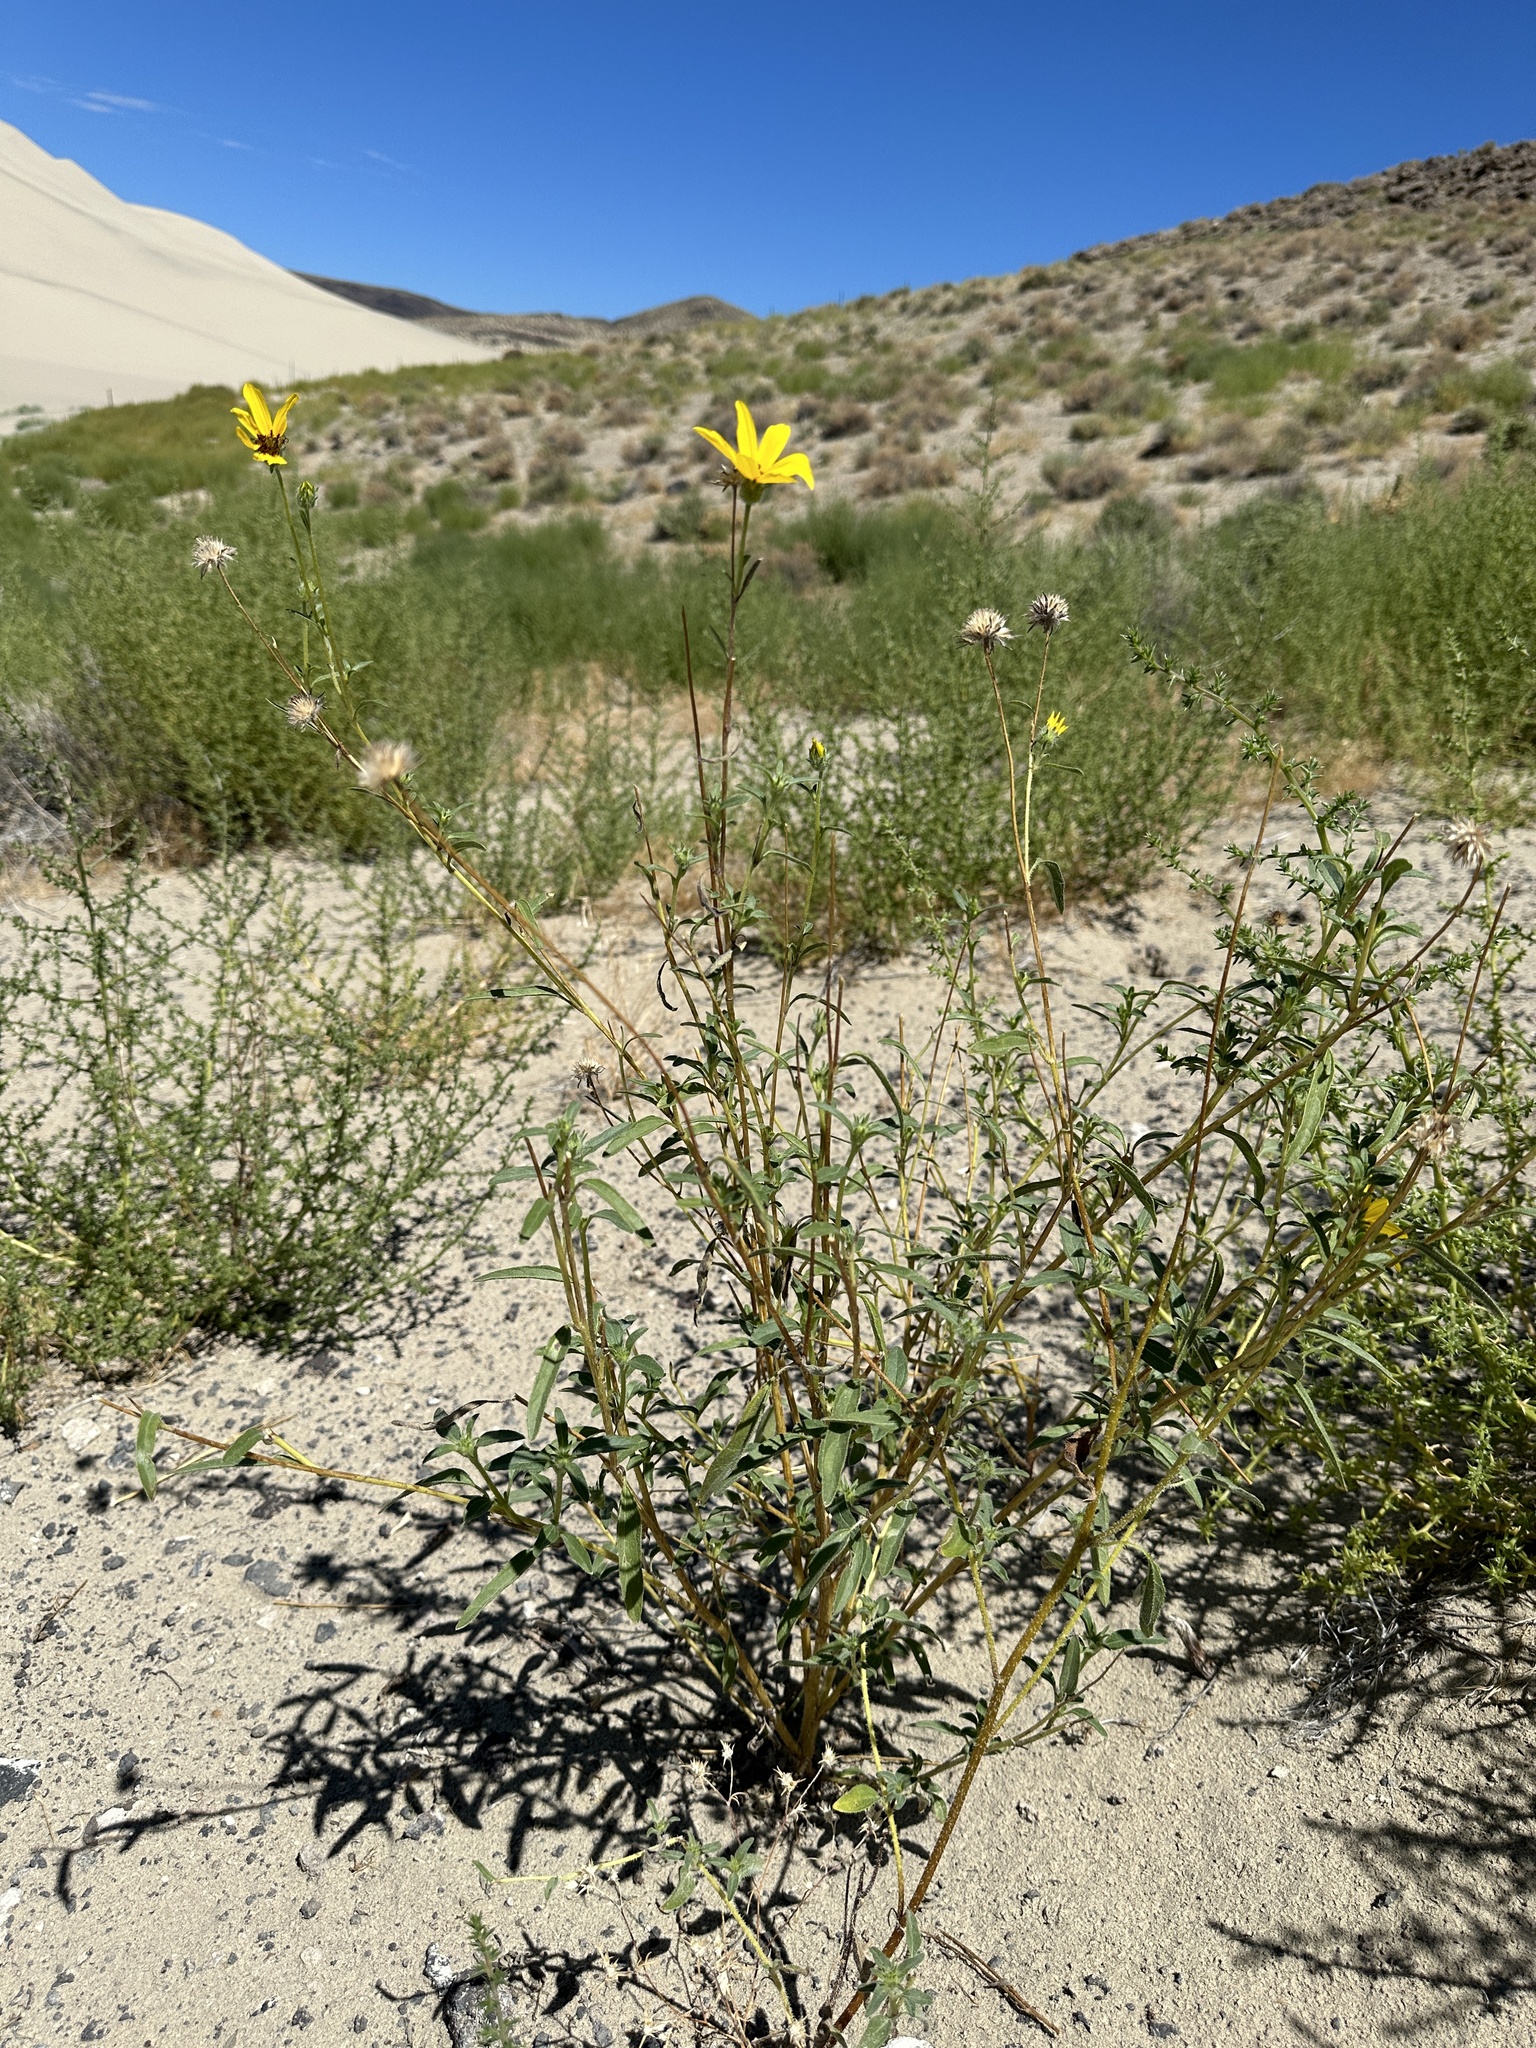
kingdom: Plantae
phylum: Tracheophyta
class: Magnoliopsida
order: Asterales
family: Asteraceae
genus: Helianthus
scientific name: Helianthus deserticola
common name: Desert sunflower
